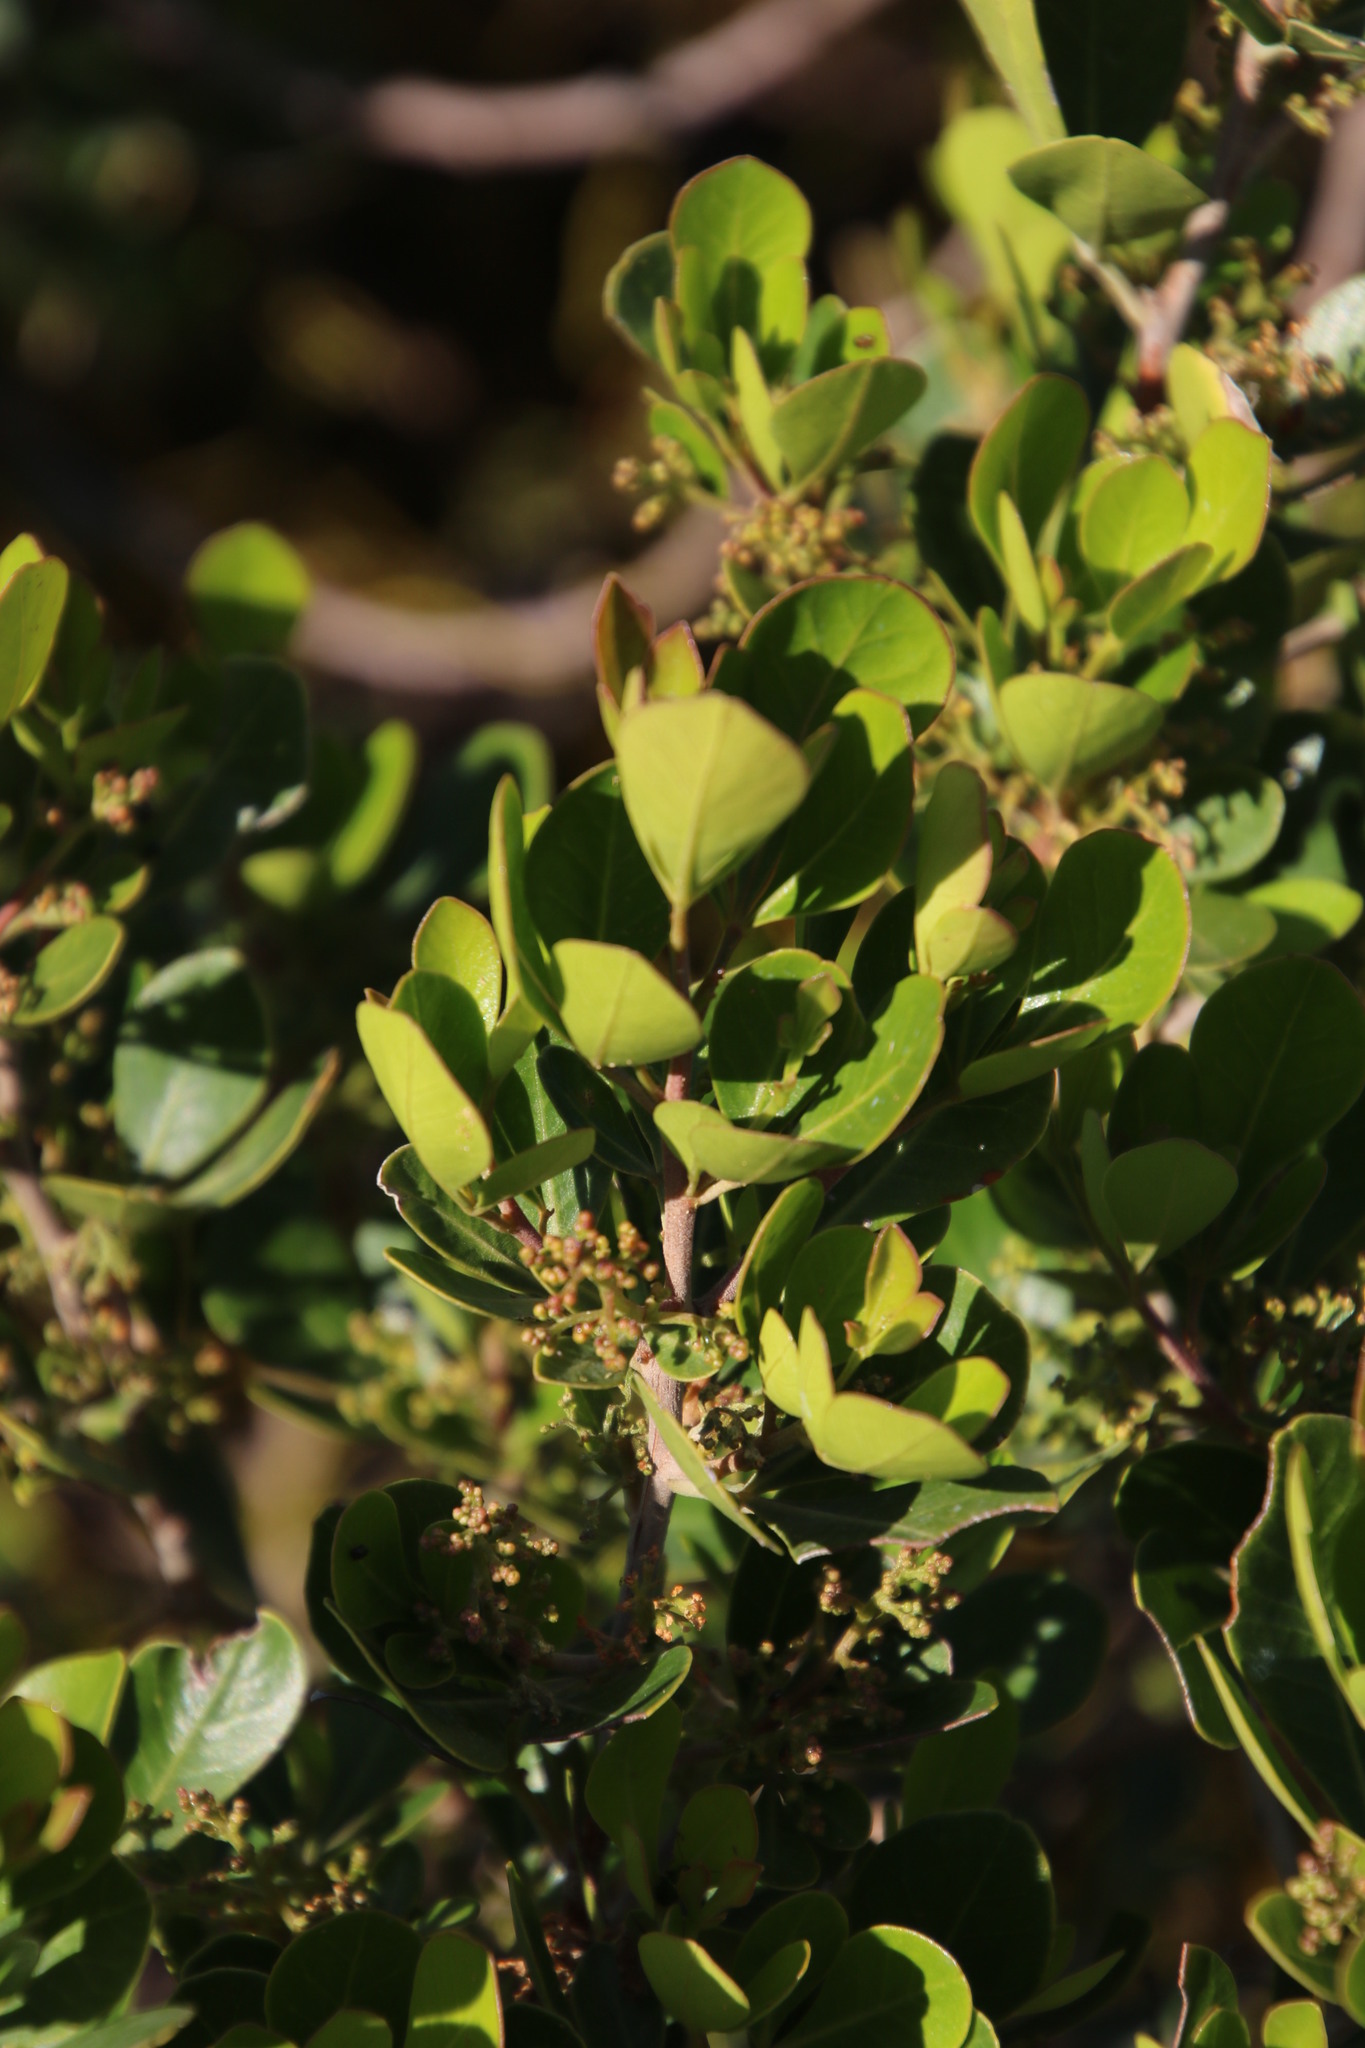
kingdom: Plantae
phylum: Tracheophyta
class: Magnoliopsida
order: Sapindales
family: Anacardiaceae
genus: Searsia
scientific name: Searsia lucida
